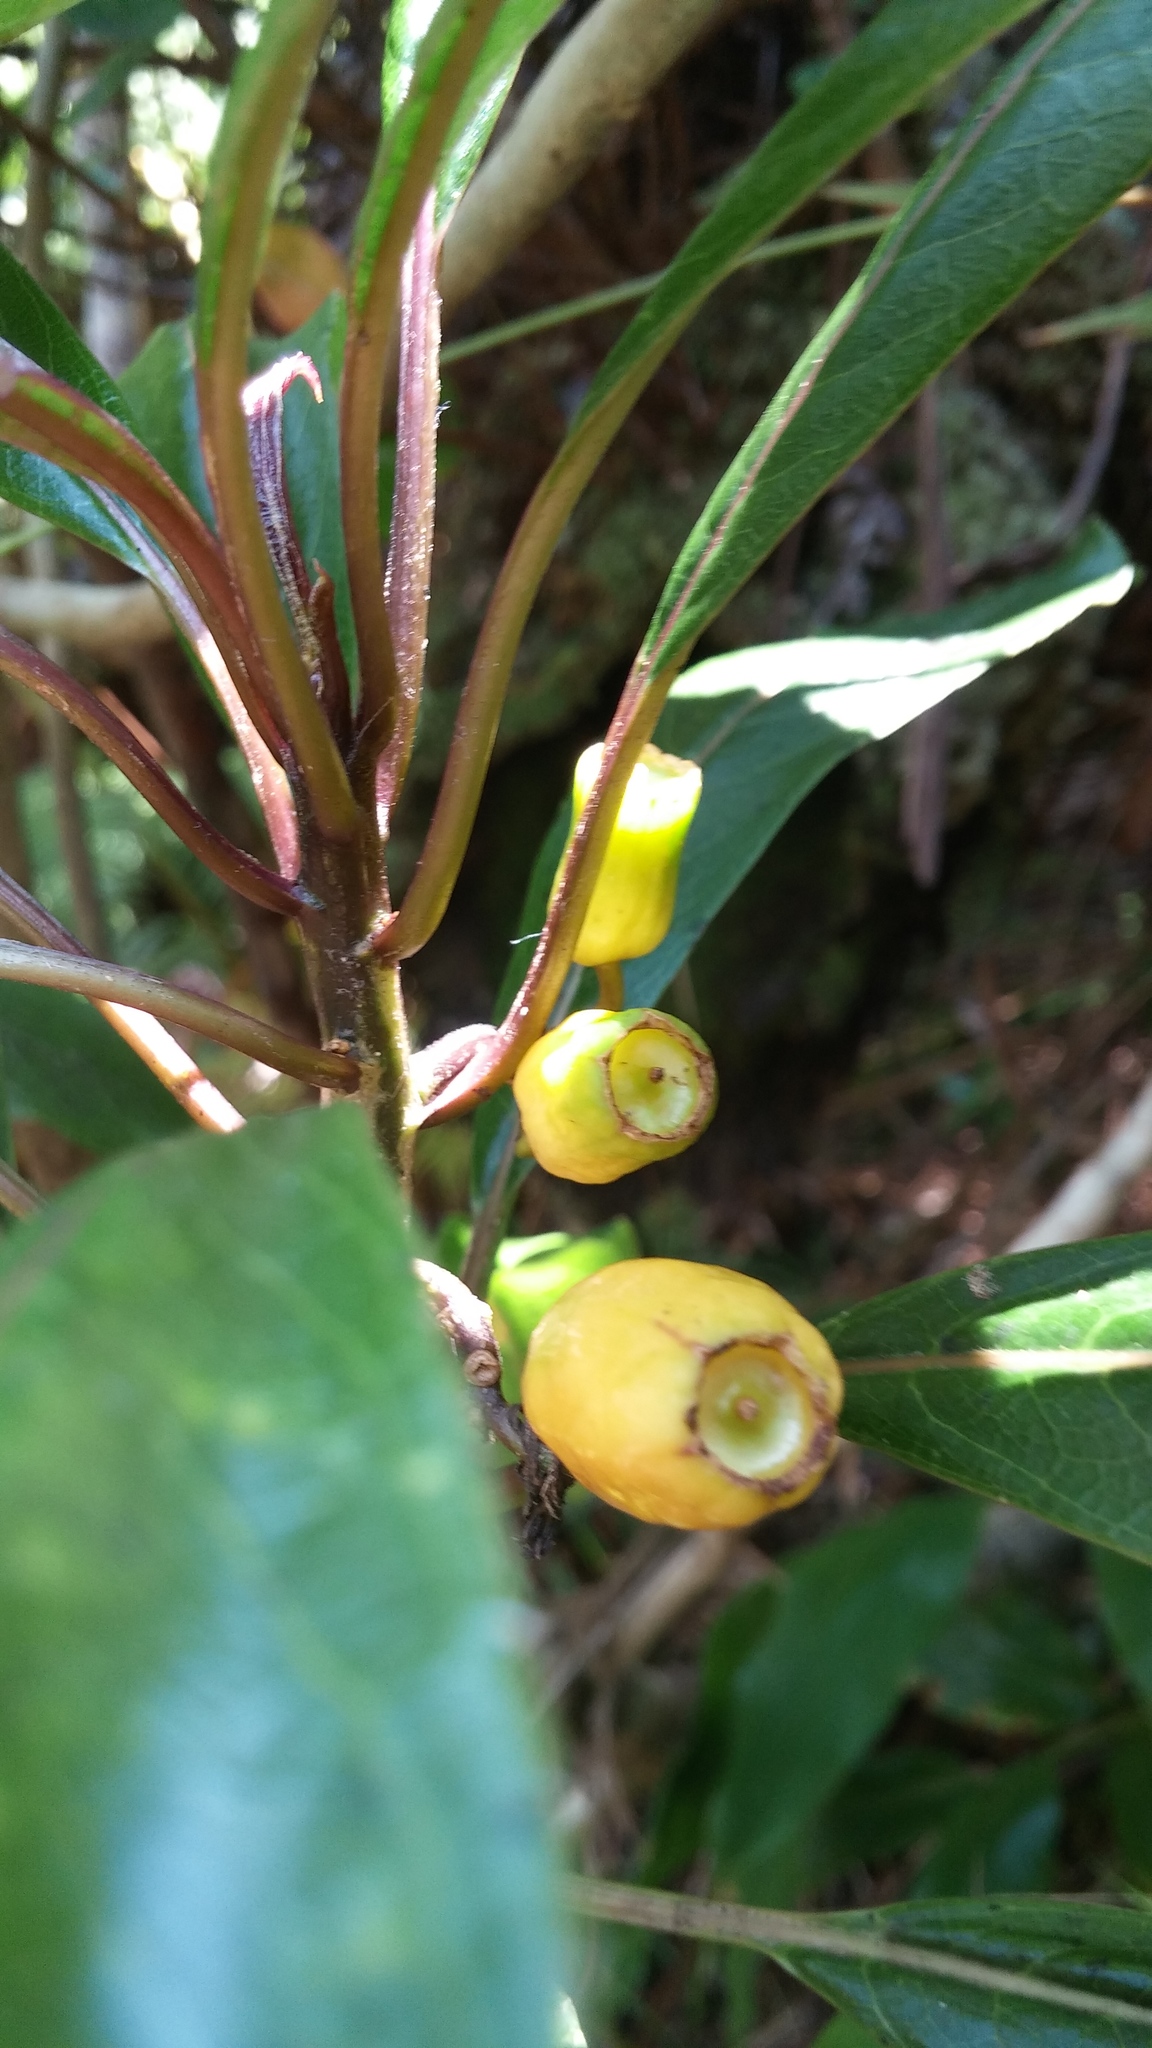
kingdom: Plantae
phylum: Tracheophyta
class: Magnoliopsida
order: Asterales
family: Campanulaceae
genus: Clermontia
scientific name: Clermontia parviflora
